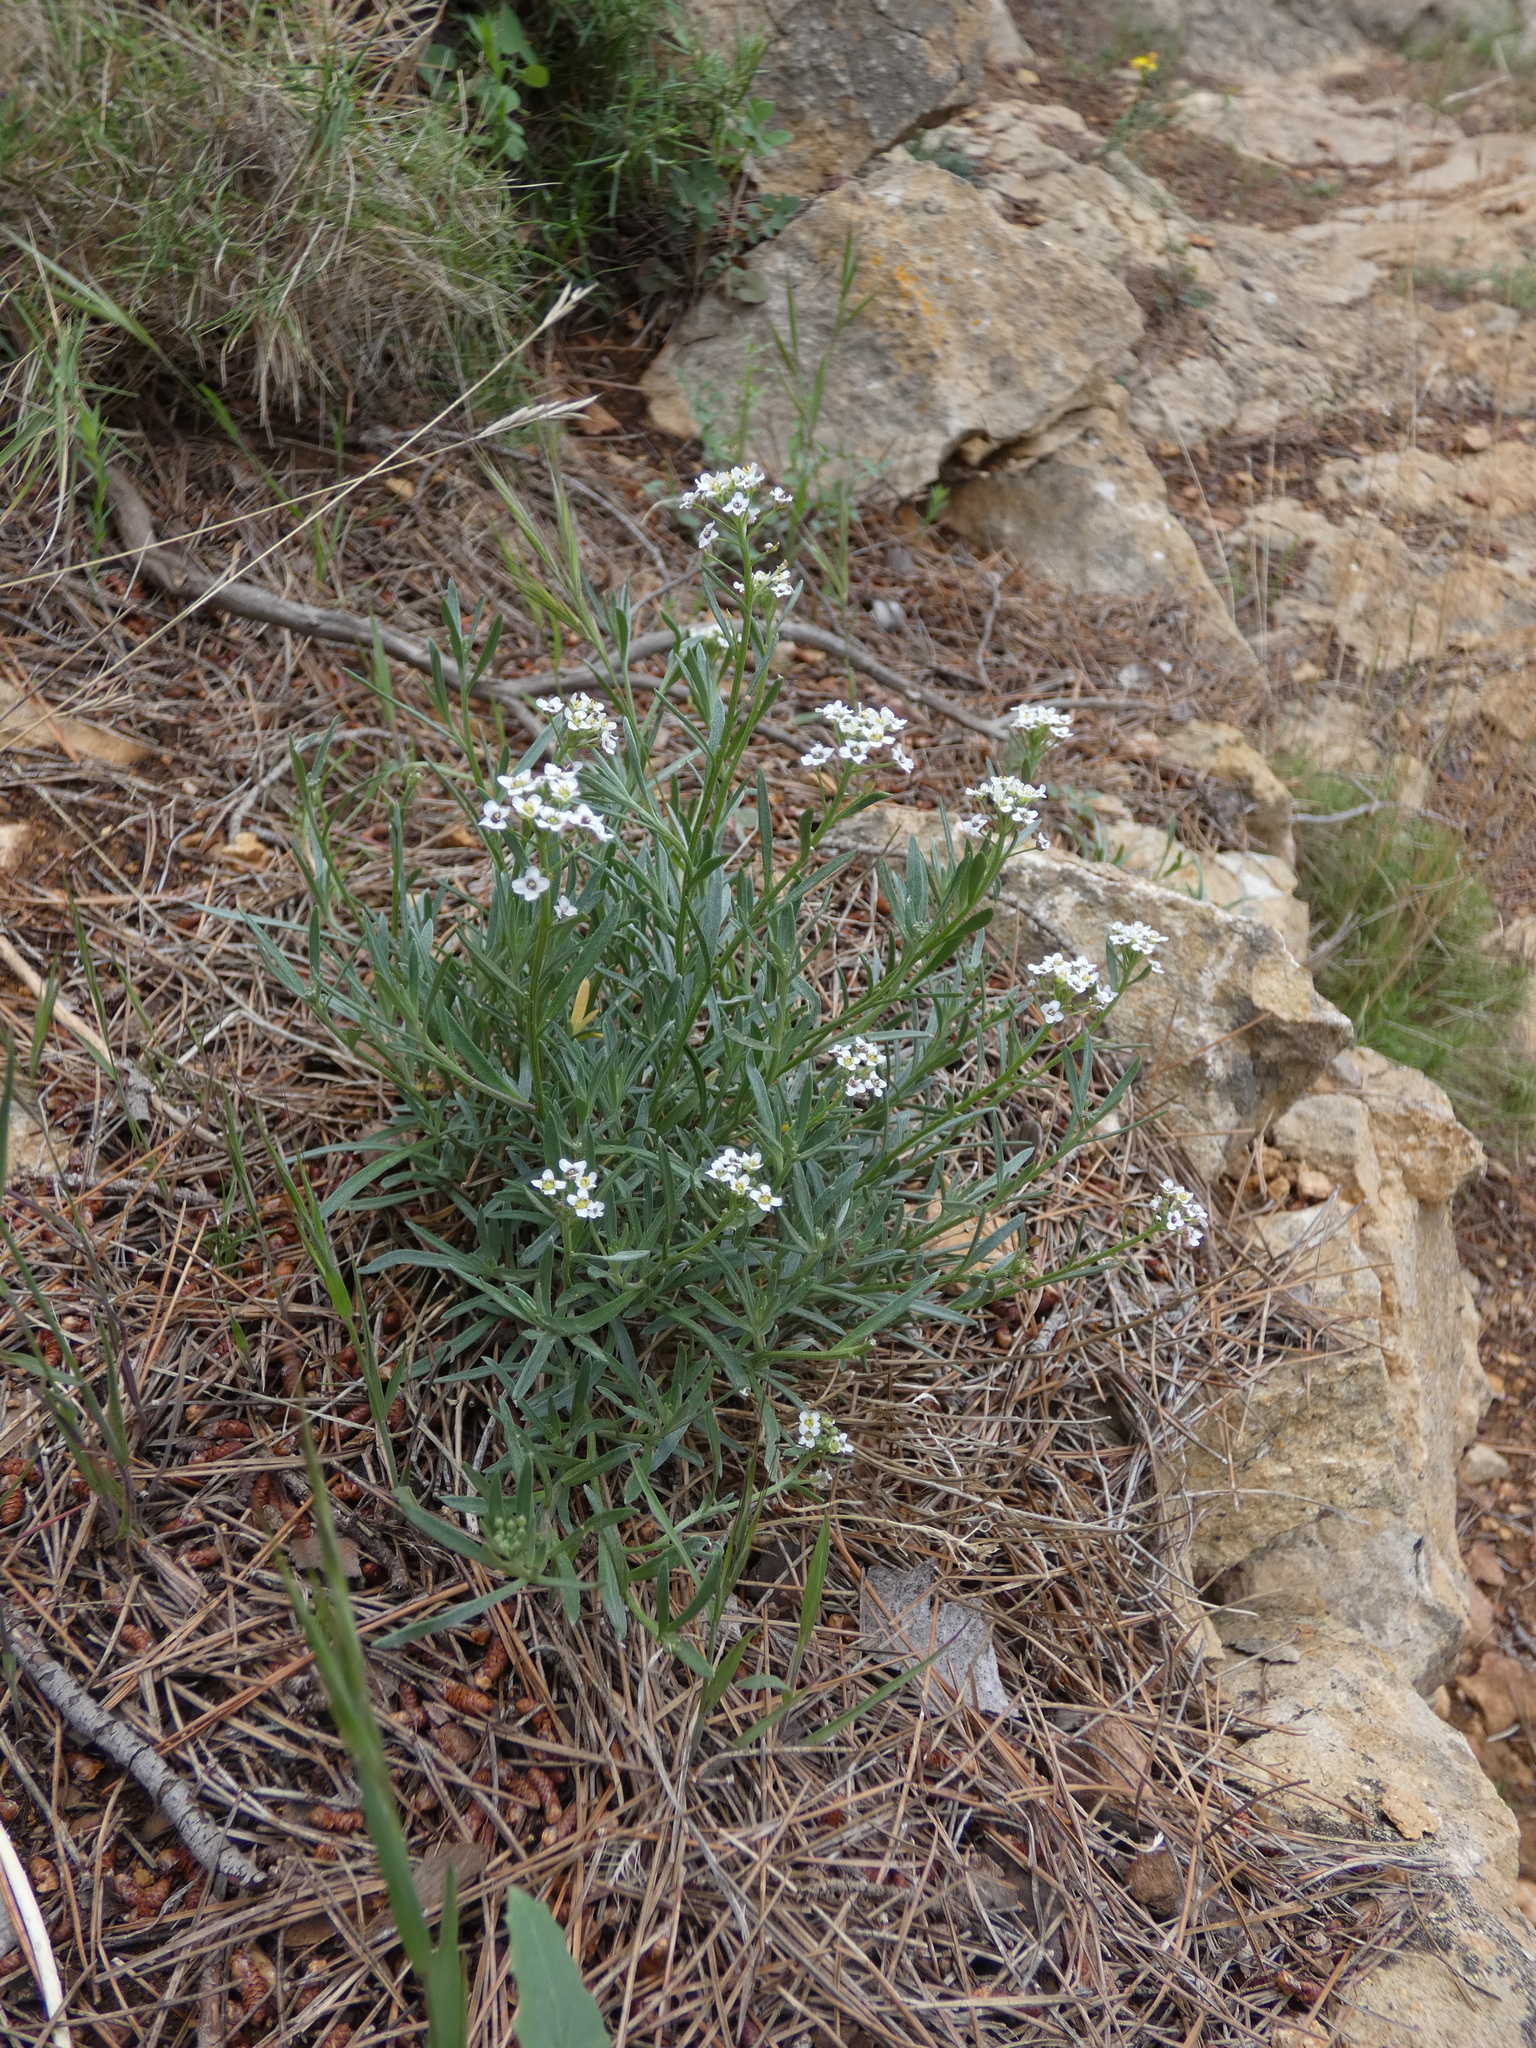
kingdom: Plantae
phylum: Tracheophyta
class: Magnoliopsida
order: Brassicales
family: Brassicaceae
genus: Lobularia
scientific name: Lobularia maritima
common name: Sweet alison
